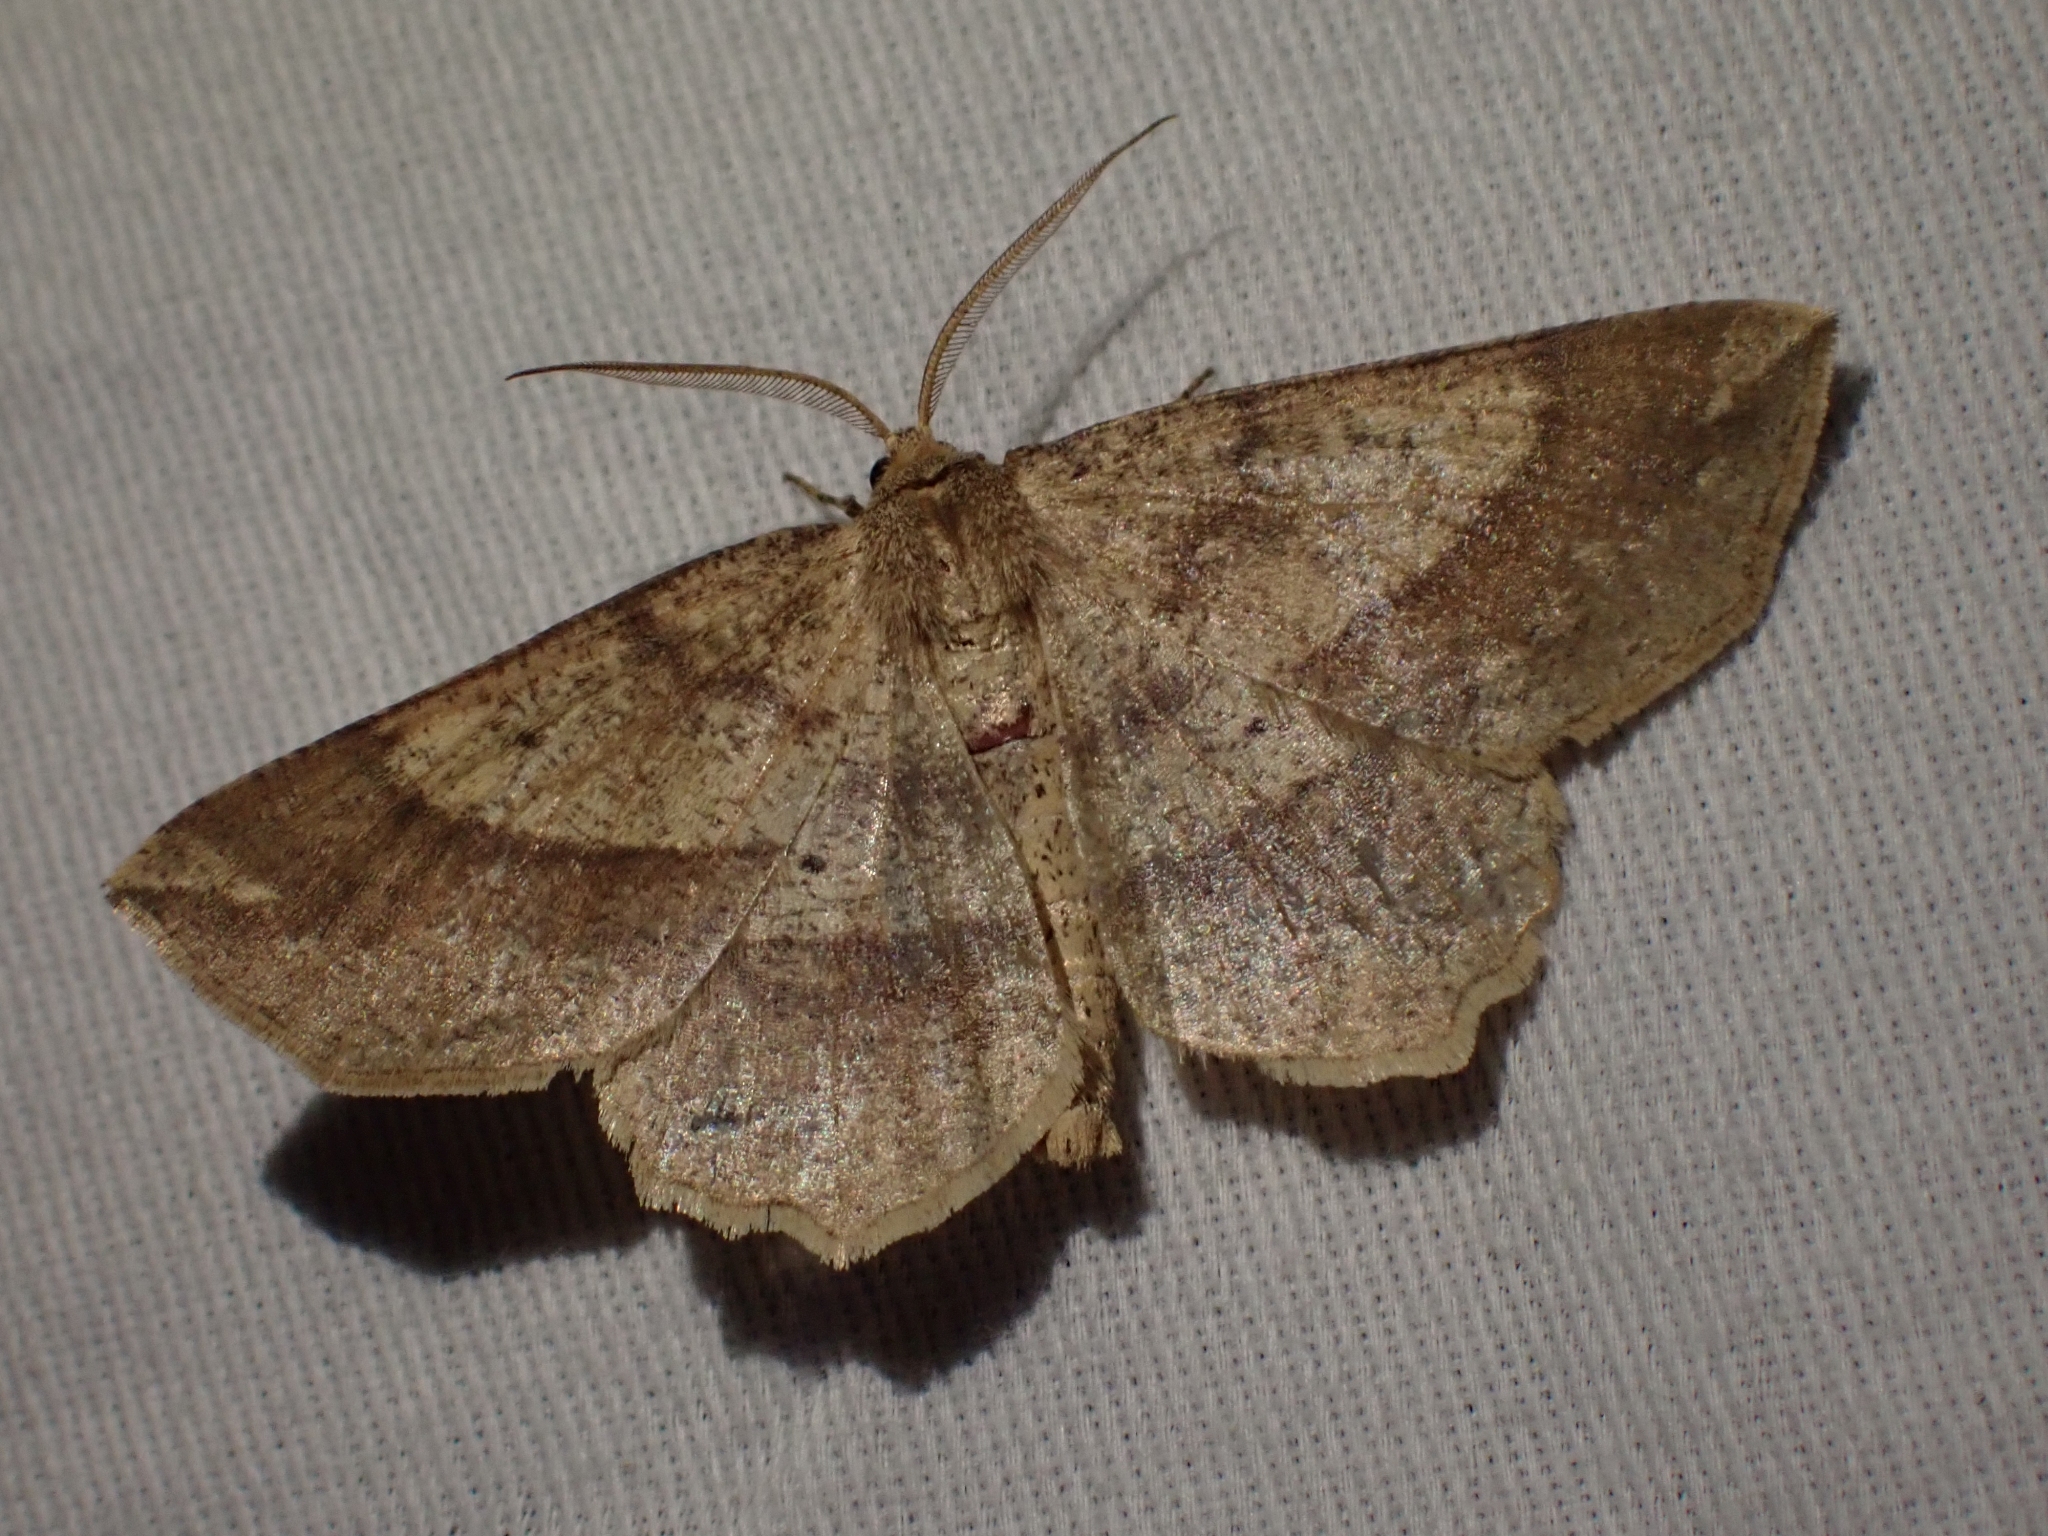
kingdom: Animalia
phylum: Arthropoda
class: Insecta
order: Lepidoptera
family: Geometridae
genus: Euchlaena
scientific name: Euchlaena marginaria
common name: Ochre euchlaena moth
